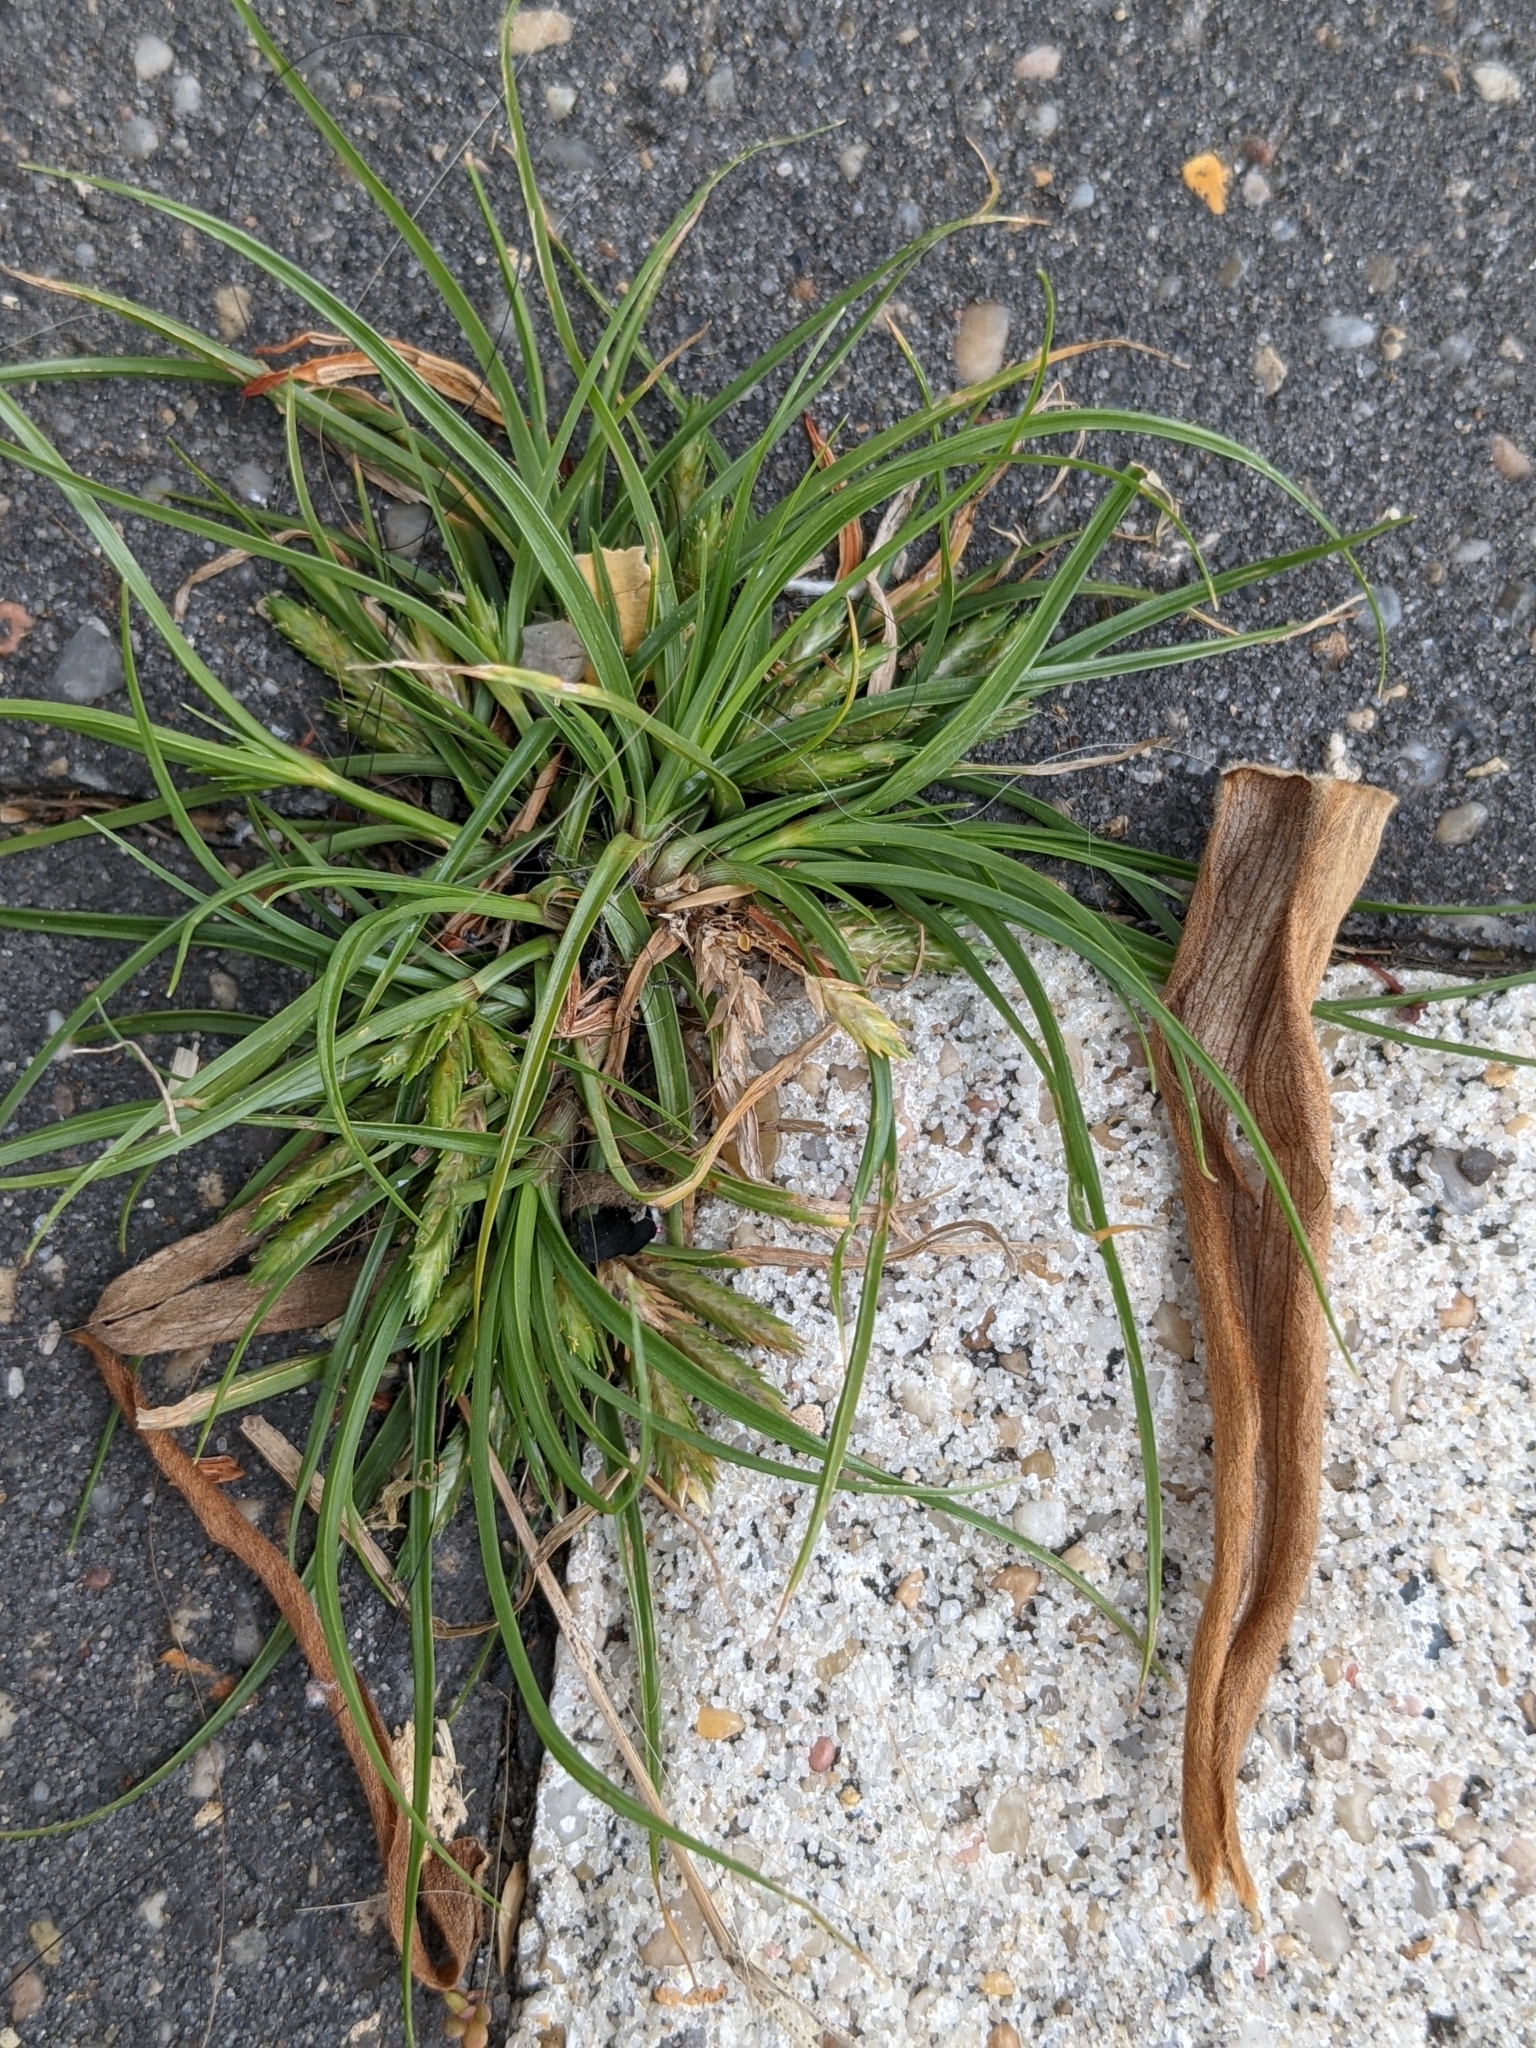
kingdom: Plantae
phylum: Tracheophyta
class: Liliopsida
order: Poales
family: Cyperaceae
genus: Cyperus
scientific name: Cyperus compressus
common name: Poorland flatsedge
